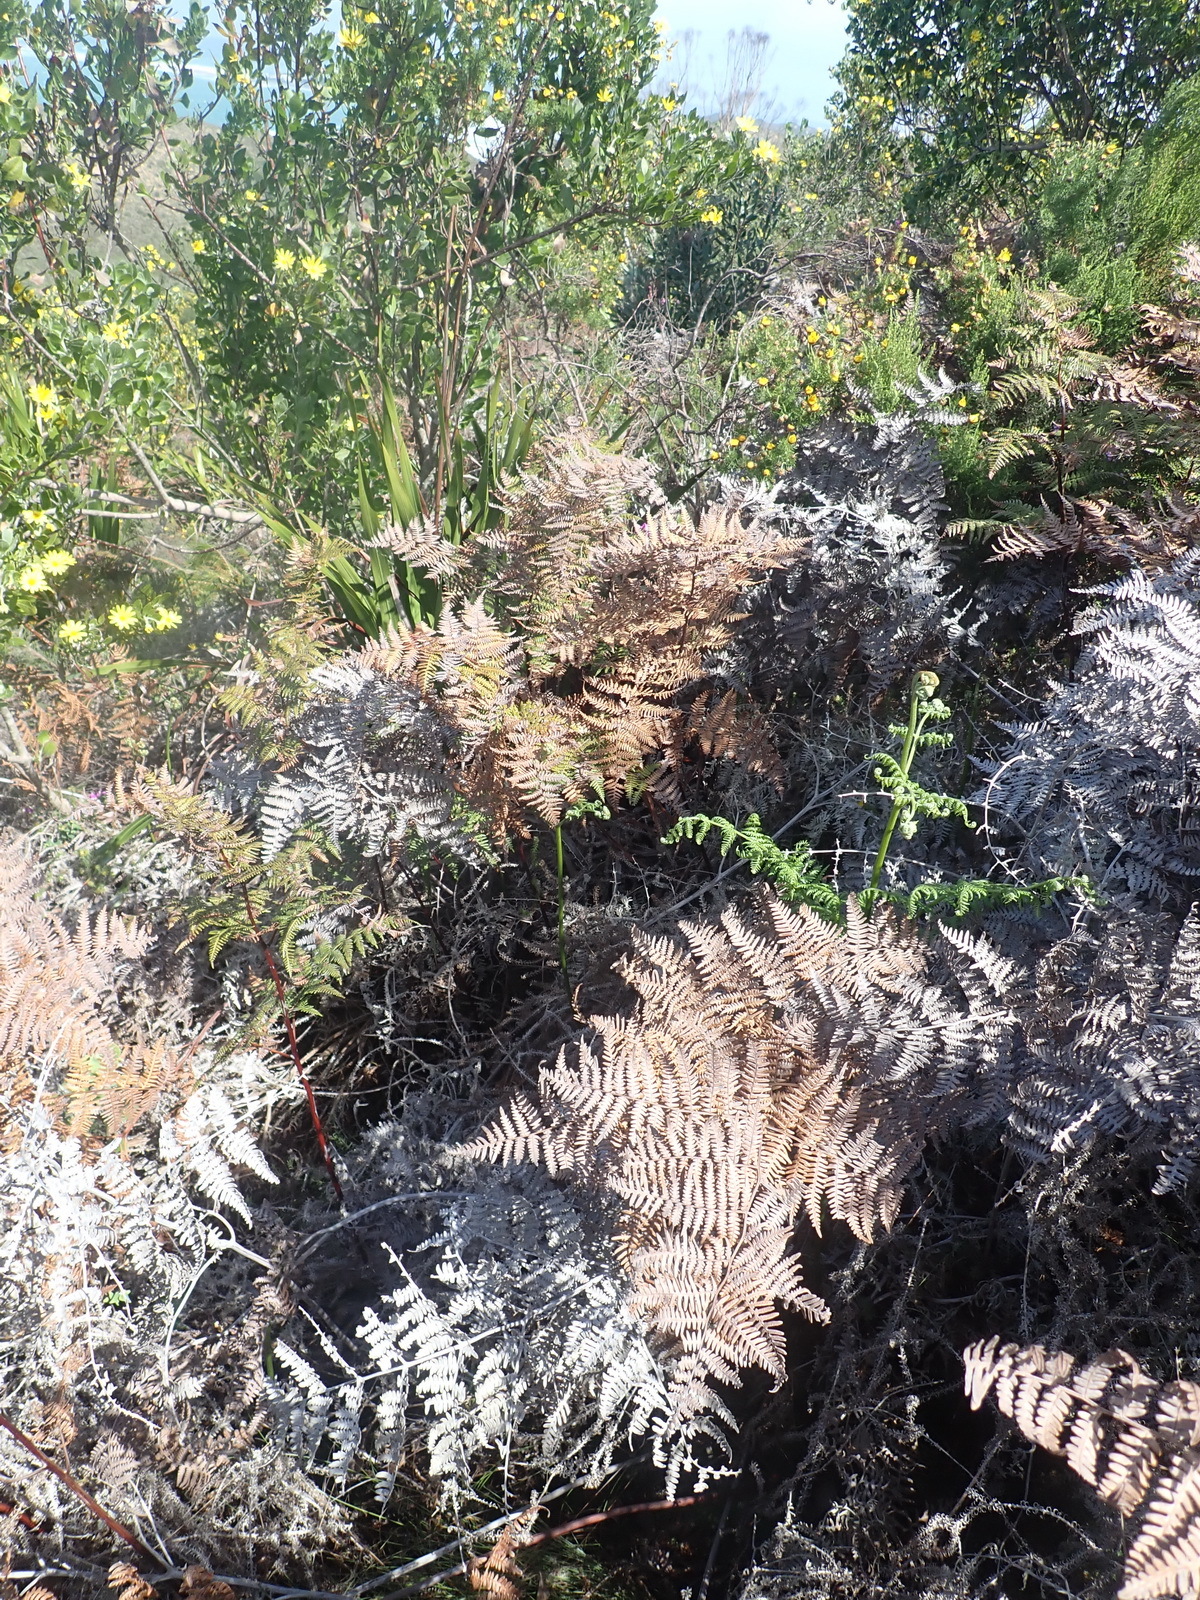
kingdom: Plantae
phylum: Tracheophyta
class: Polypodiopsida
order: Polypodiales
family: Dennstaedtiaceae
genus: Pteridium
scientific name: Pteridium aquilinum
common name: Bracken
